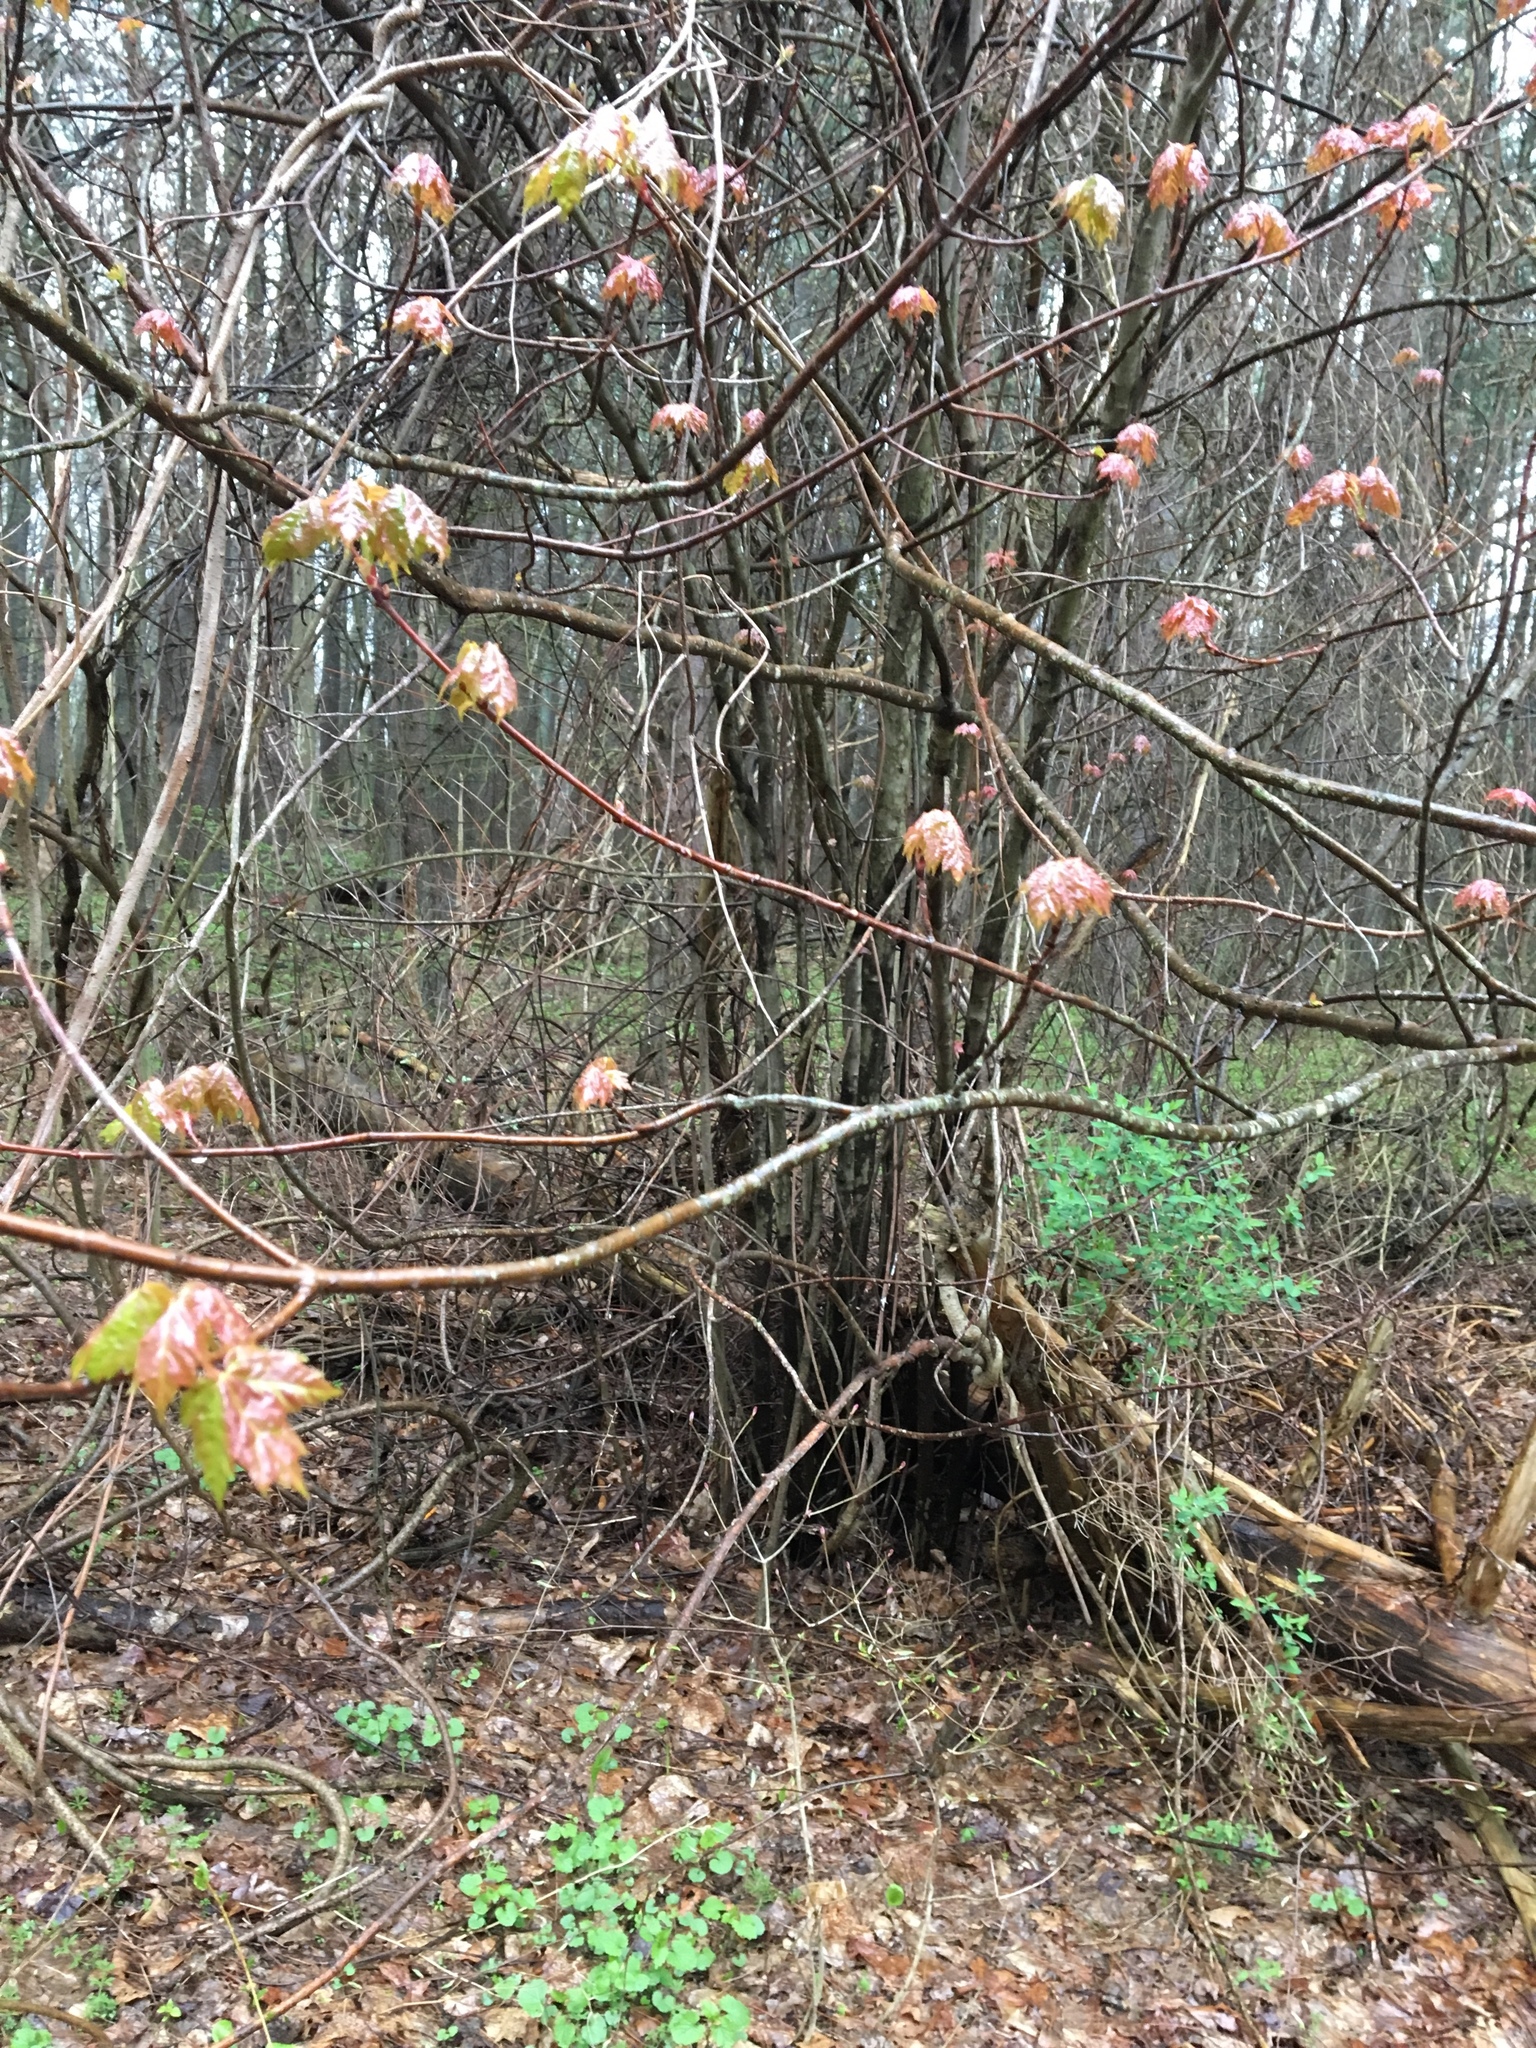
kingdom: Plantae
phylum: Tracheophyta
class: Magnoliopsida
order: Sapindales
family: Sapindaceae
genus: Acer
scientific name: Acer rubrum
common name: Red maple
